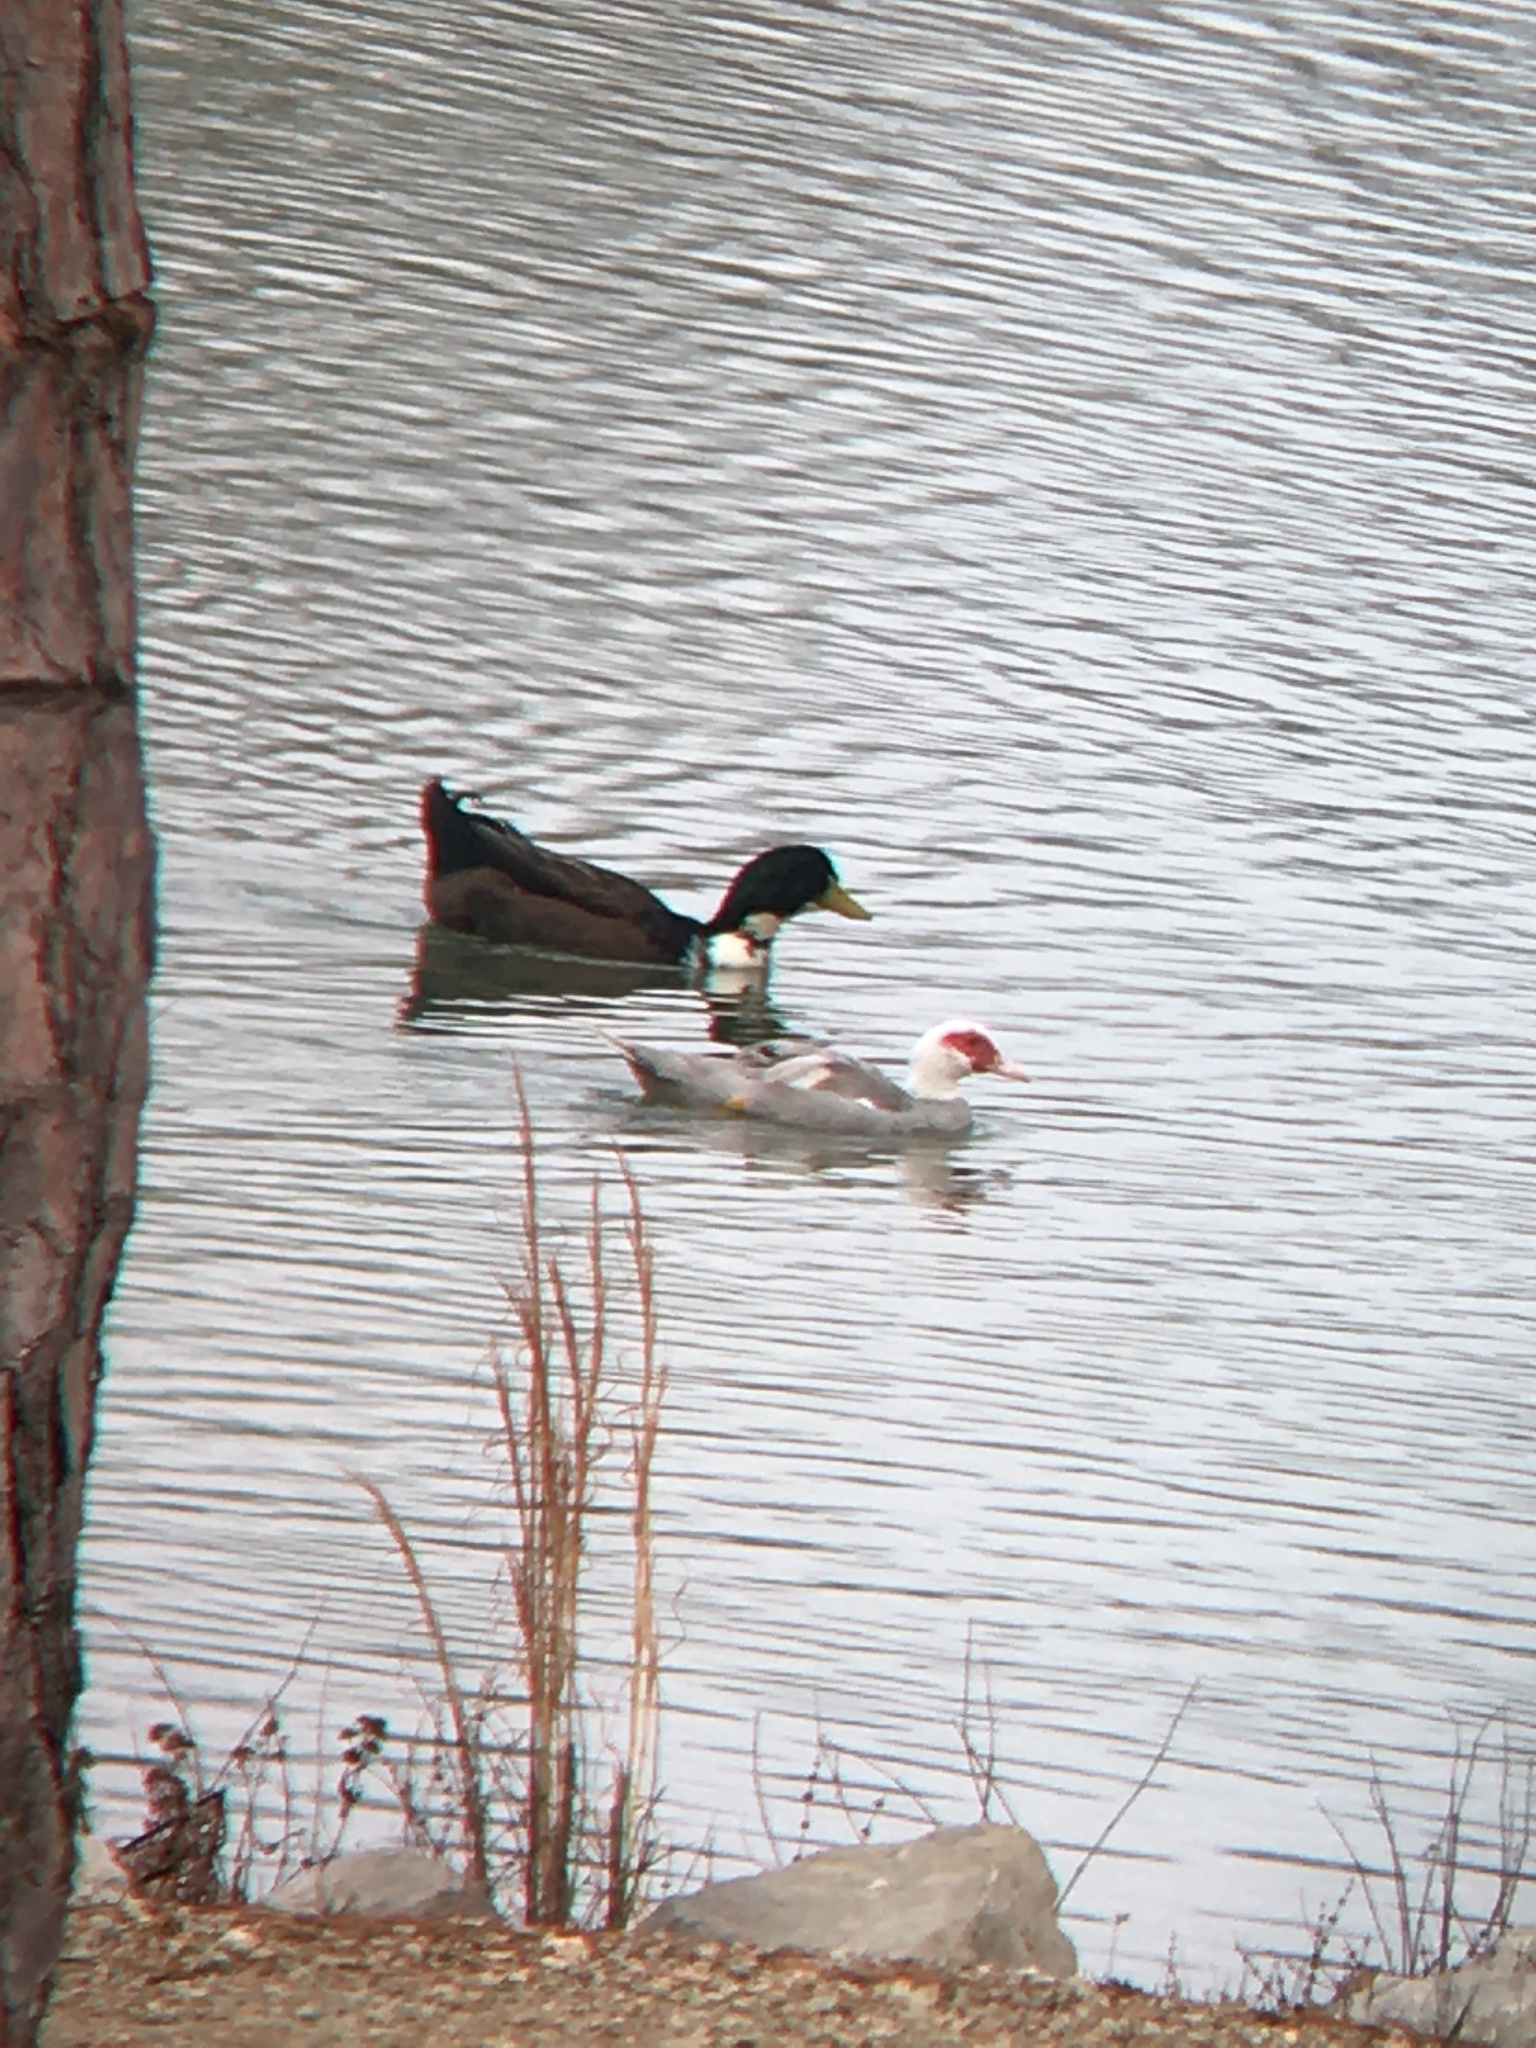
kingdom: Animalia
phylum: Chordata
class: Aves
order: Anseriformes
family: Anatidae
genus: Cairina
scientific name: Cairina moschata
